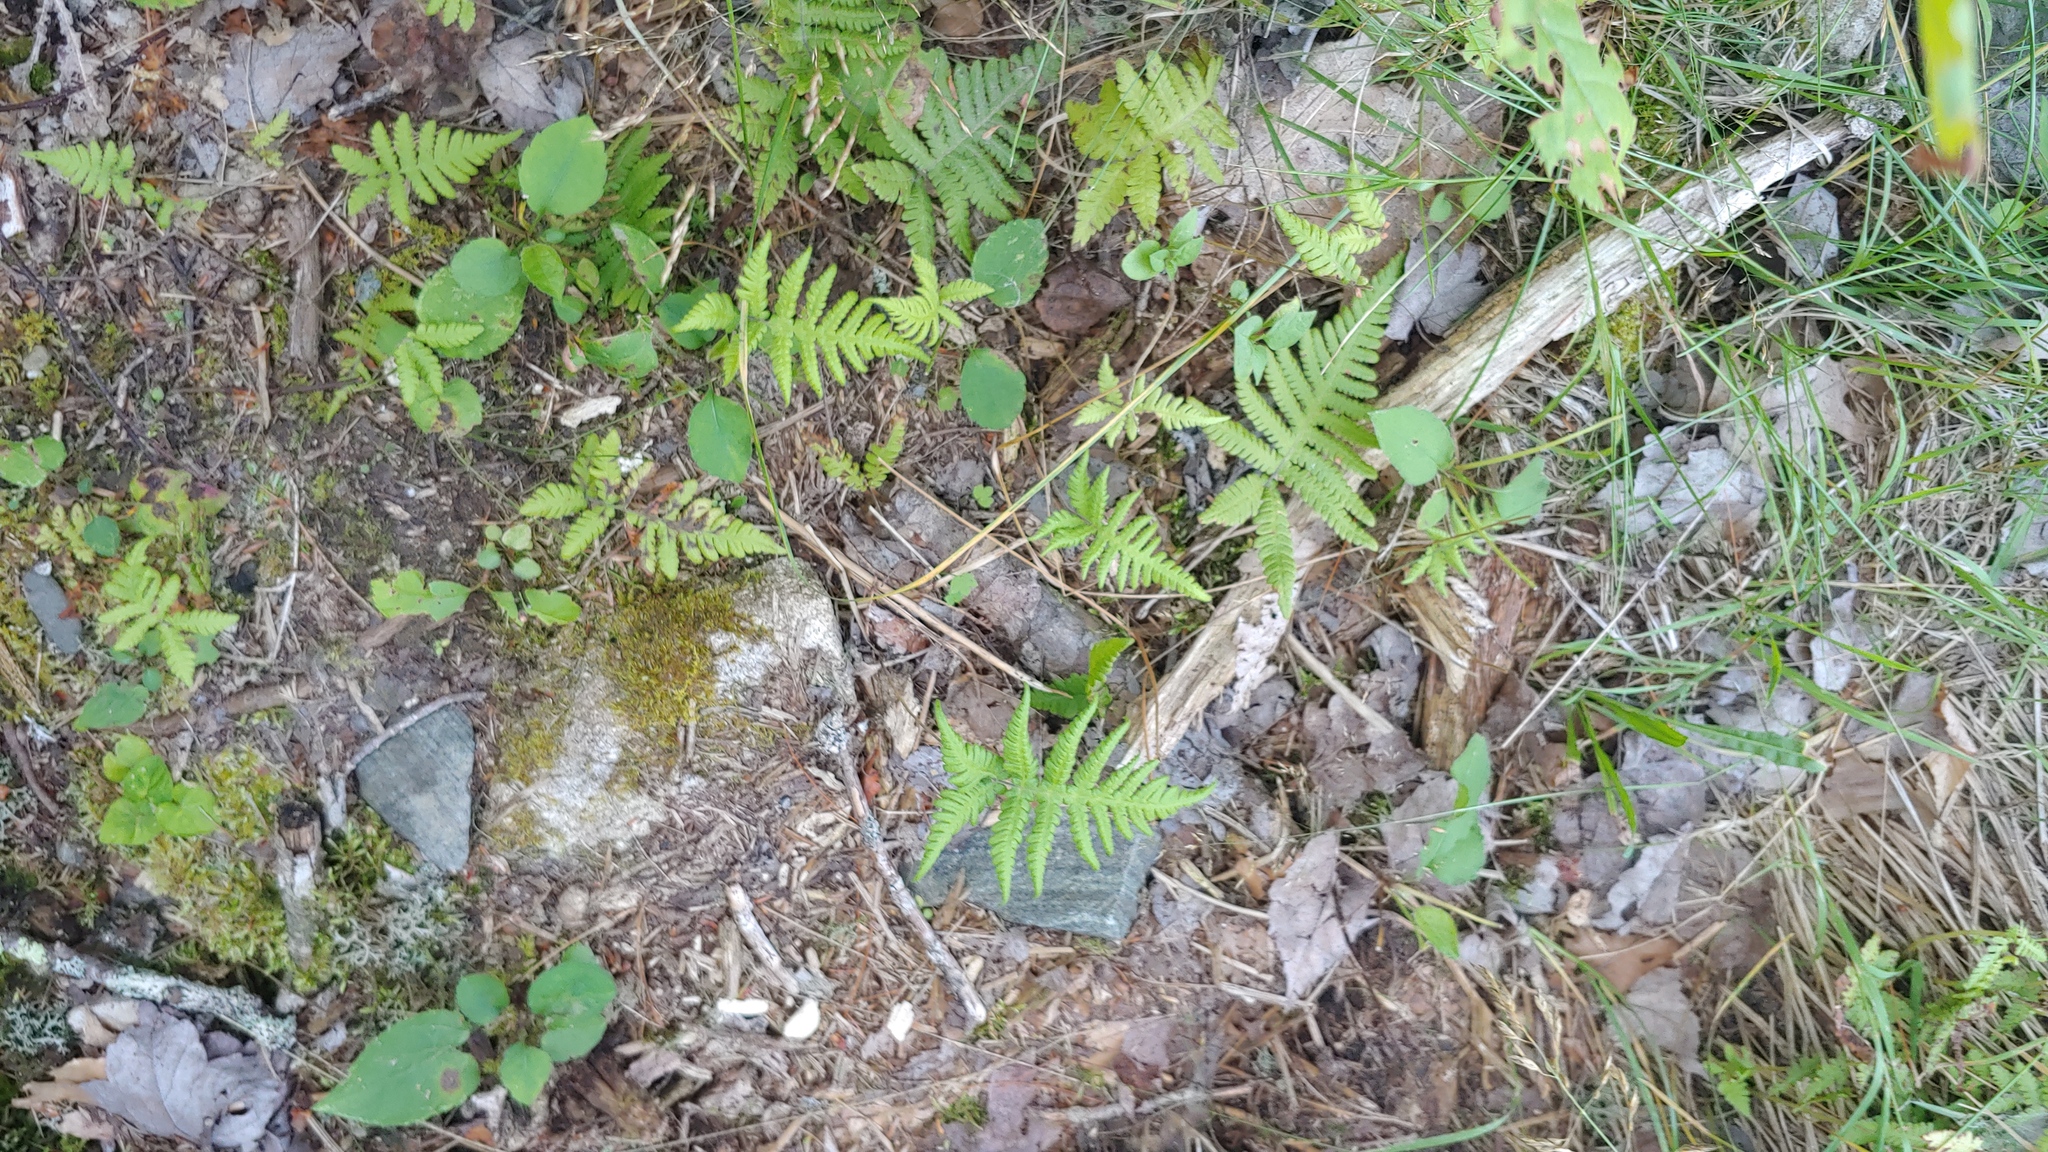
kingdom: Plantae
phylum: Tracheophyta
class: Polypodiopsida
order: Polypodiales
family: Thelypteridaceae
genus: Phegopteris
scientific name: Phegopteris connectilis
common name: Beech fern
